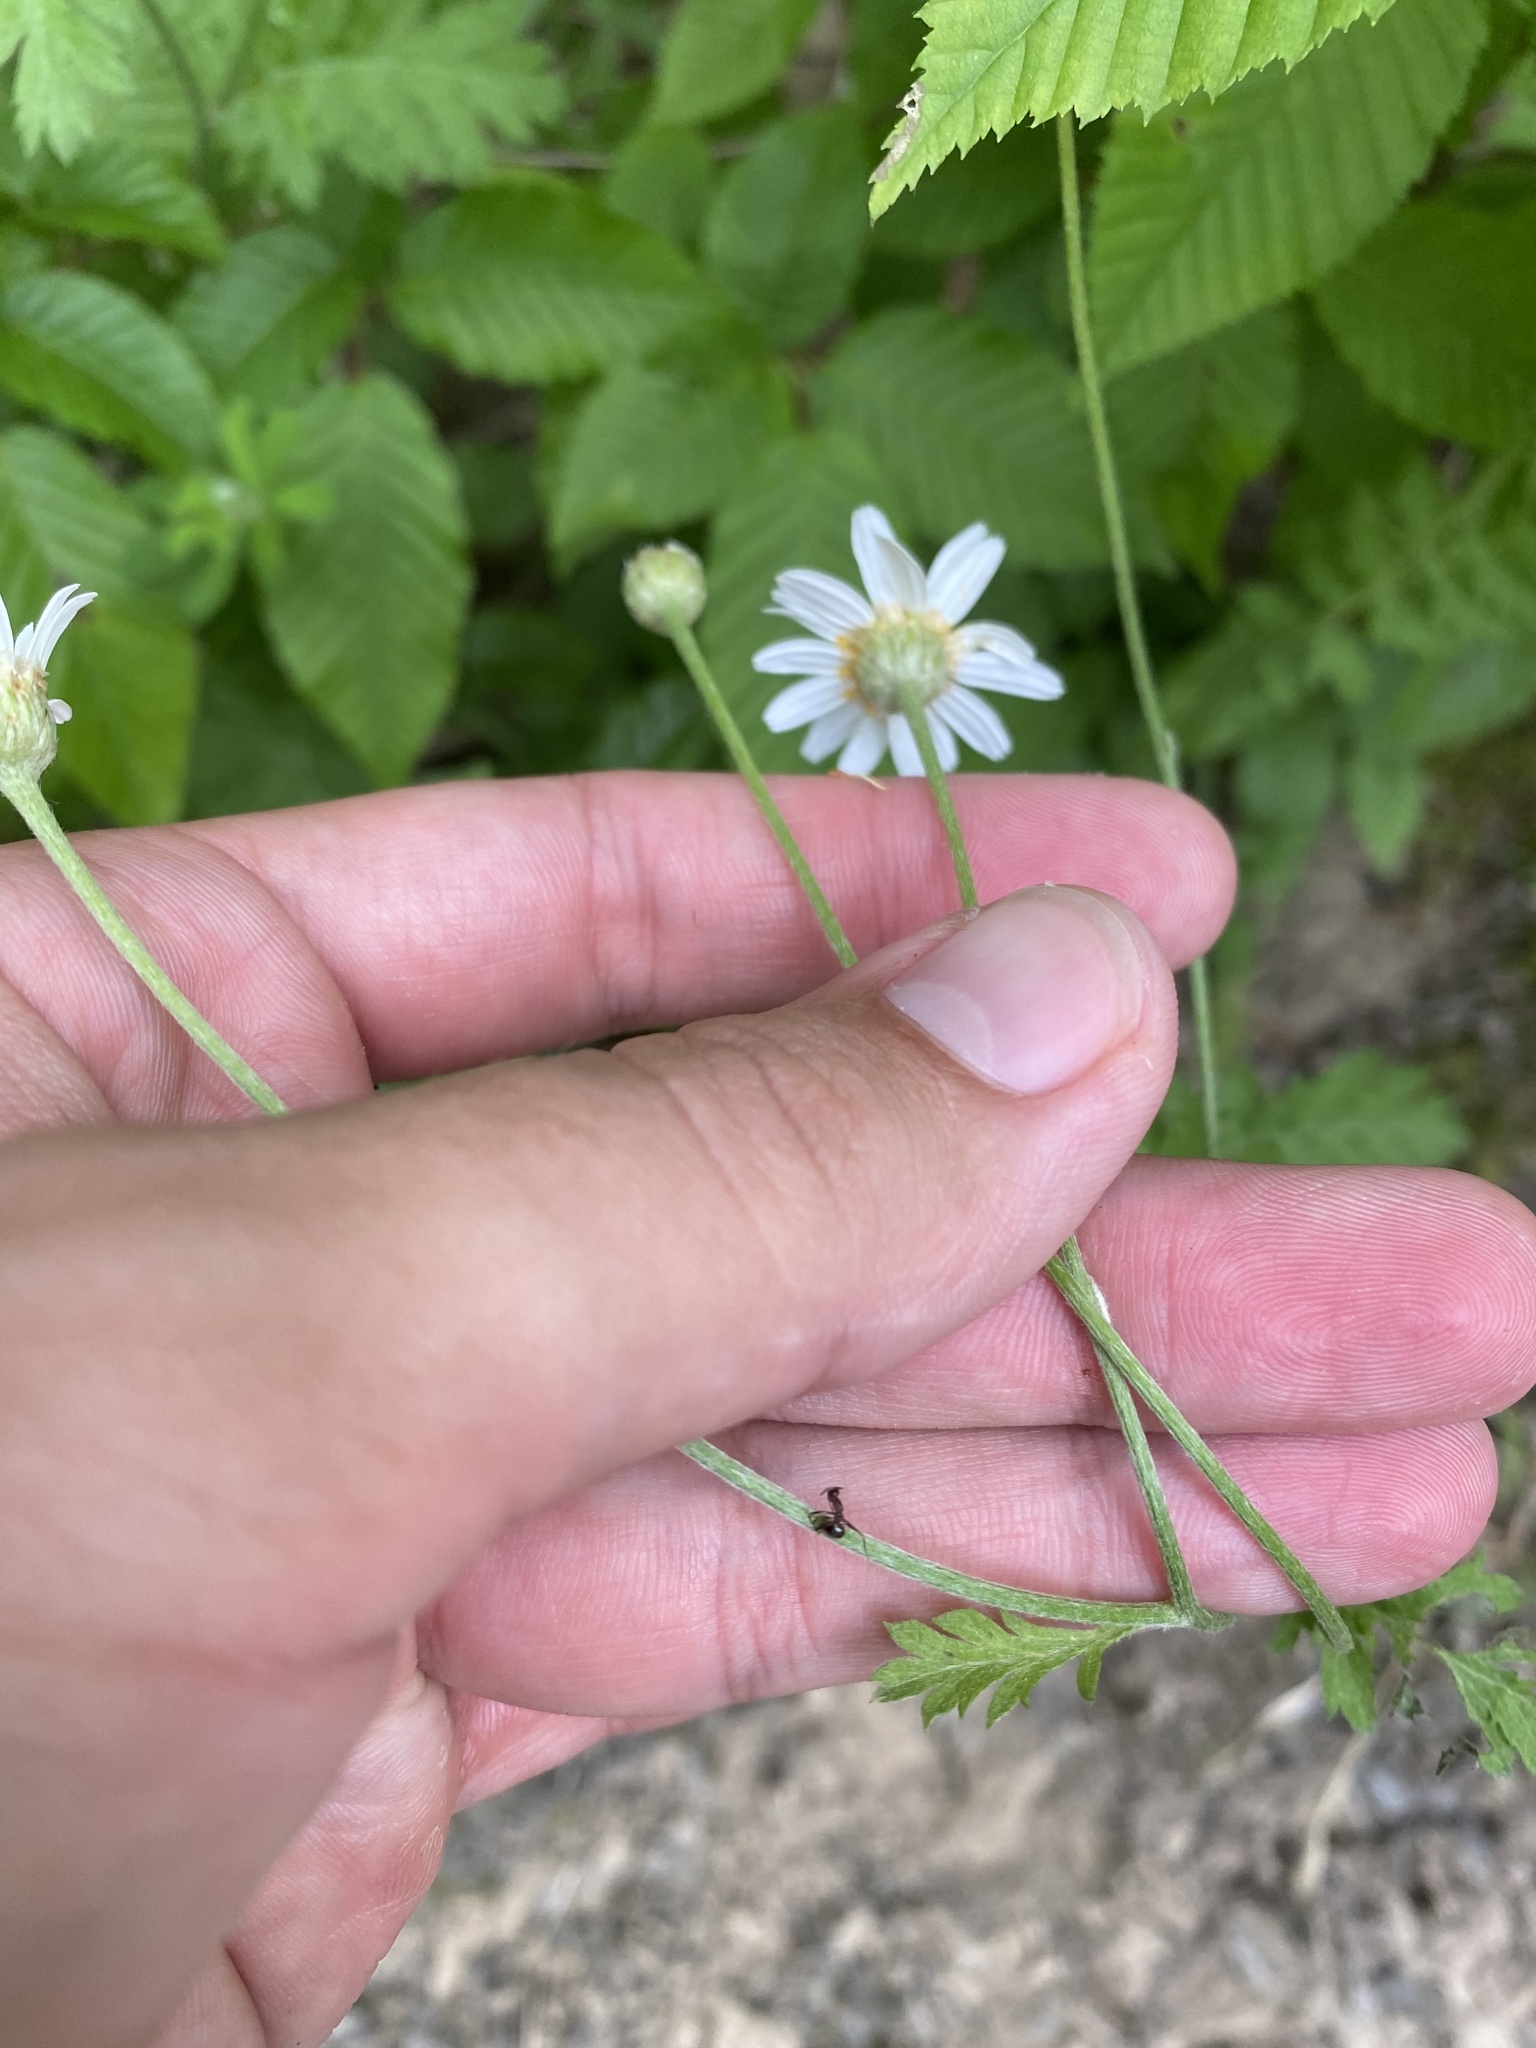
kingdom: Plantae
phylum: Tracheophyta
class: Magnoliopsida
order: Asterales
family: Asteraceae
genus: Tanacetum
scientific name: Tanacetum poteriifolium
